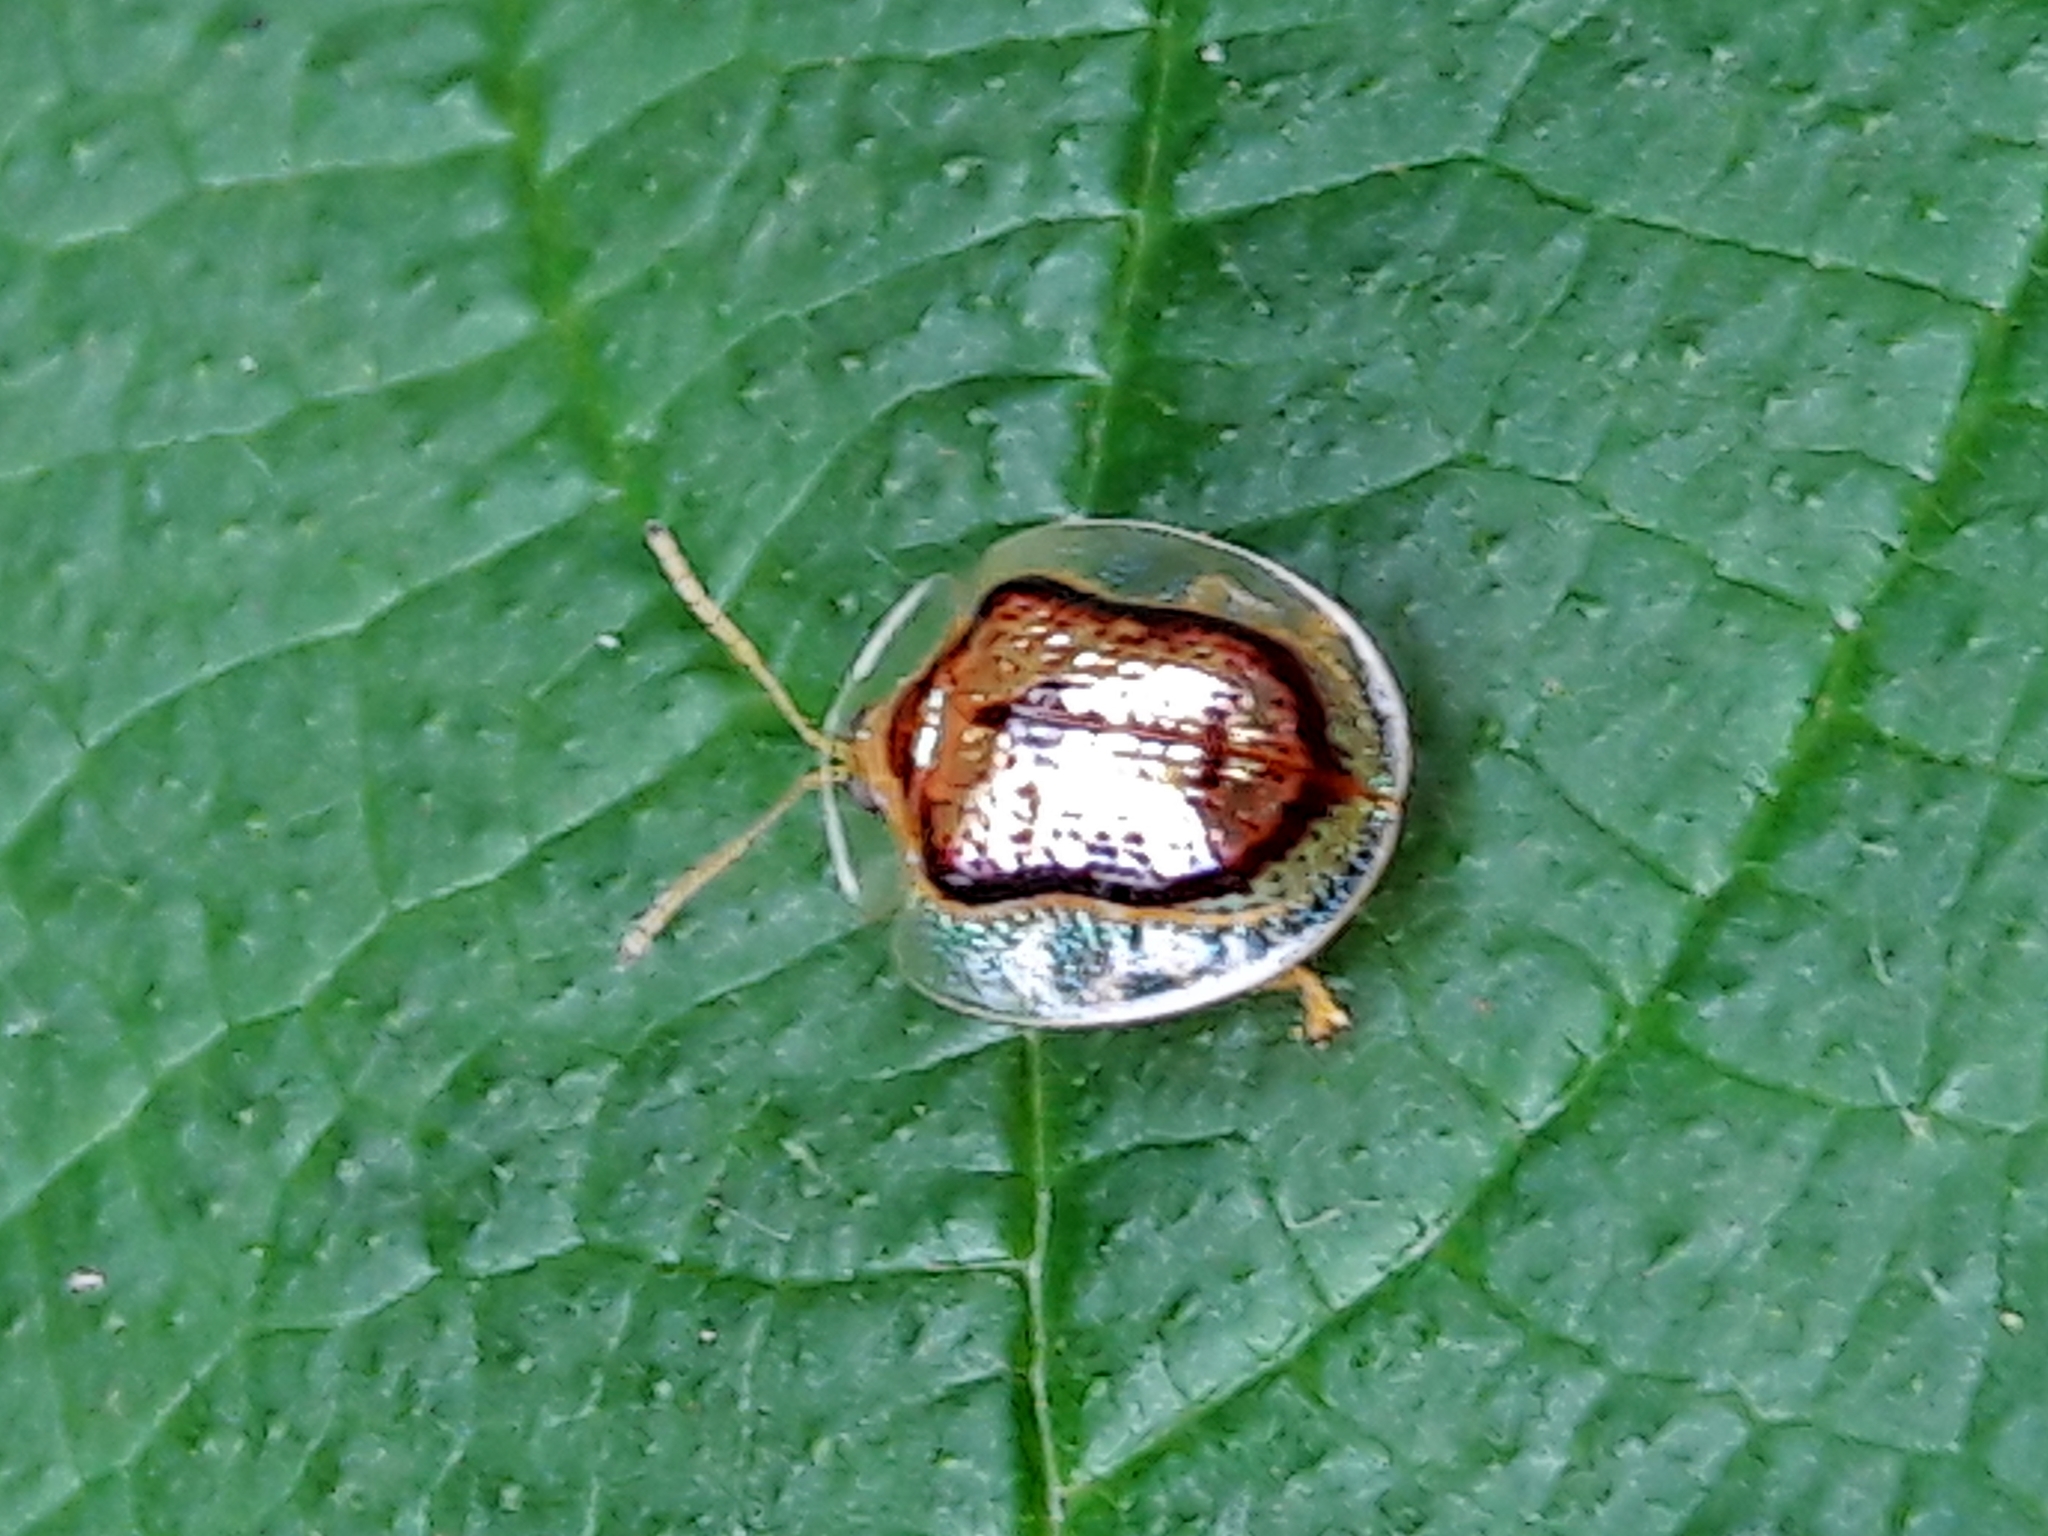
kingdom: Animalia
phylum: Arthropoda
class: Insecta
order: Coleoptera
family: Chrysomelidae
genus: Microctenochira
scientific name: Microctenochira quadrata
